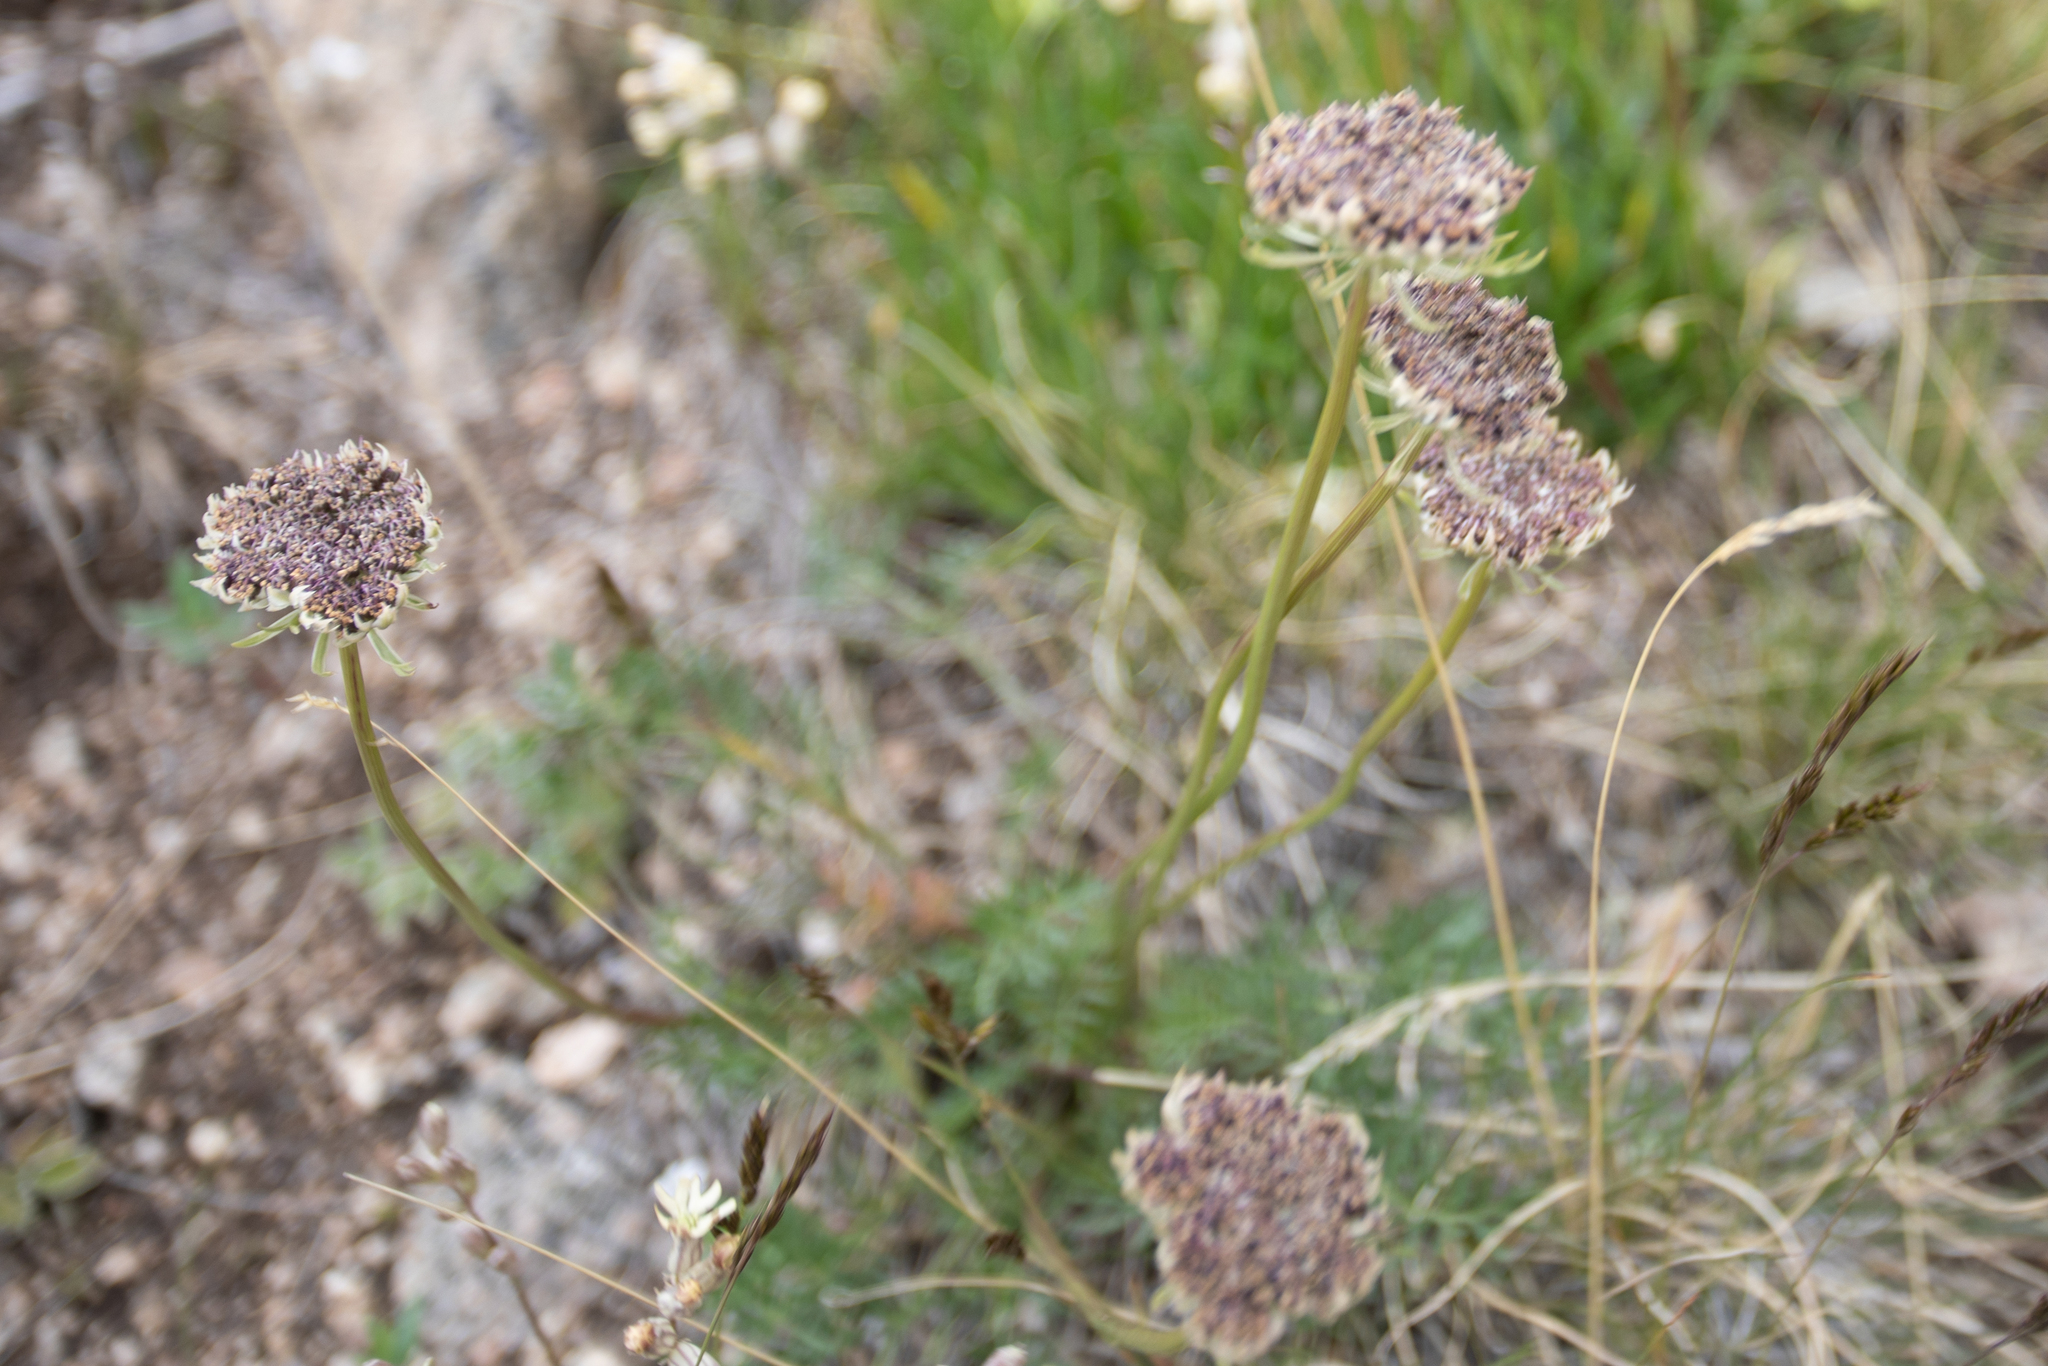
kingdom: Plantae
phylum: Tracheophyta
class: Magnoliopsida
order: Apiales
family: Apiaceae
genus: Pachypleurum
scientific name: Pachypleurum mutellinoides
